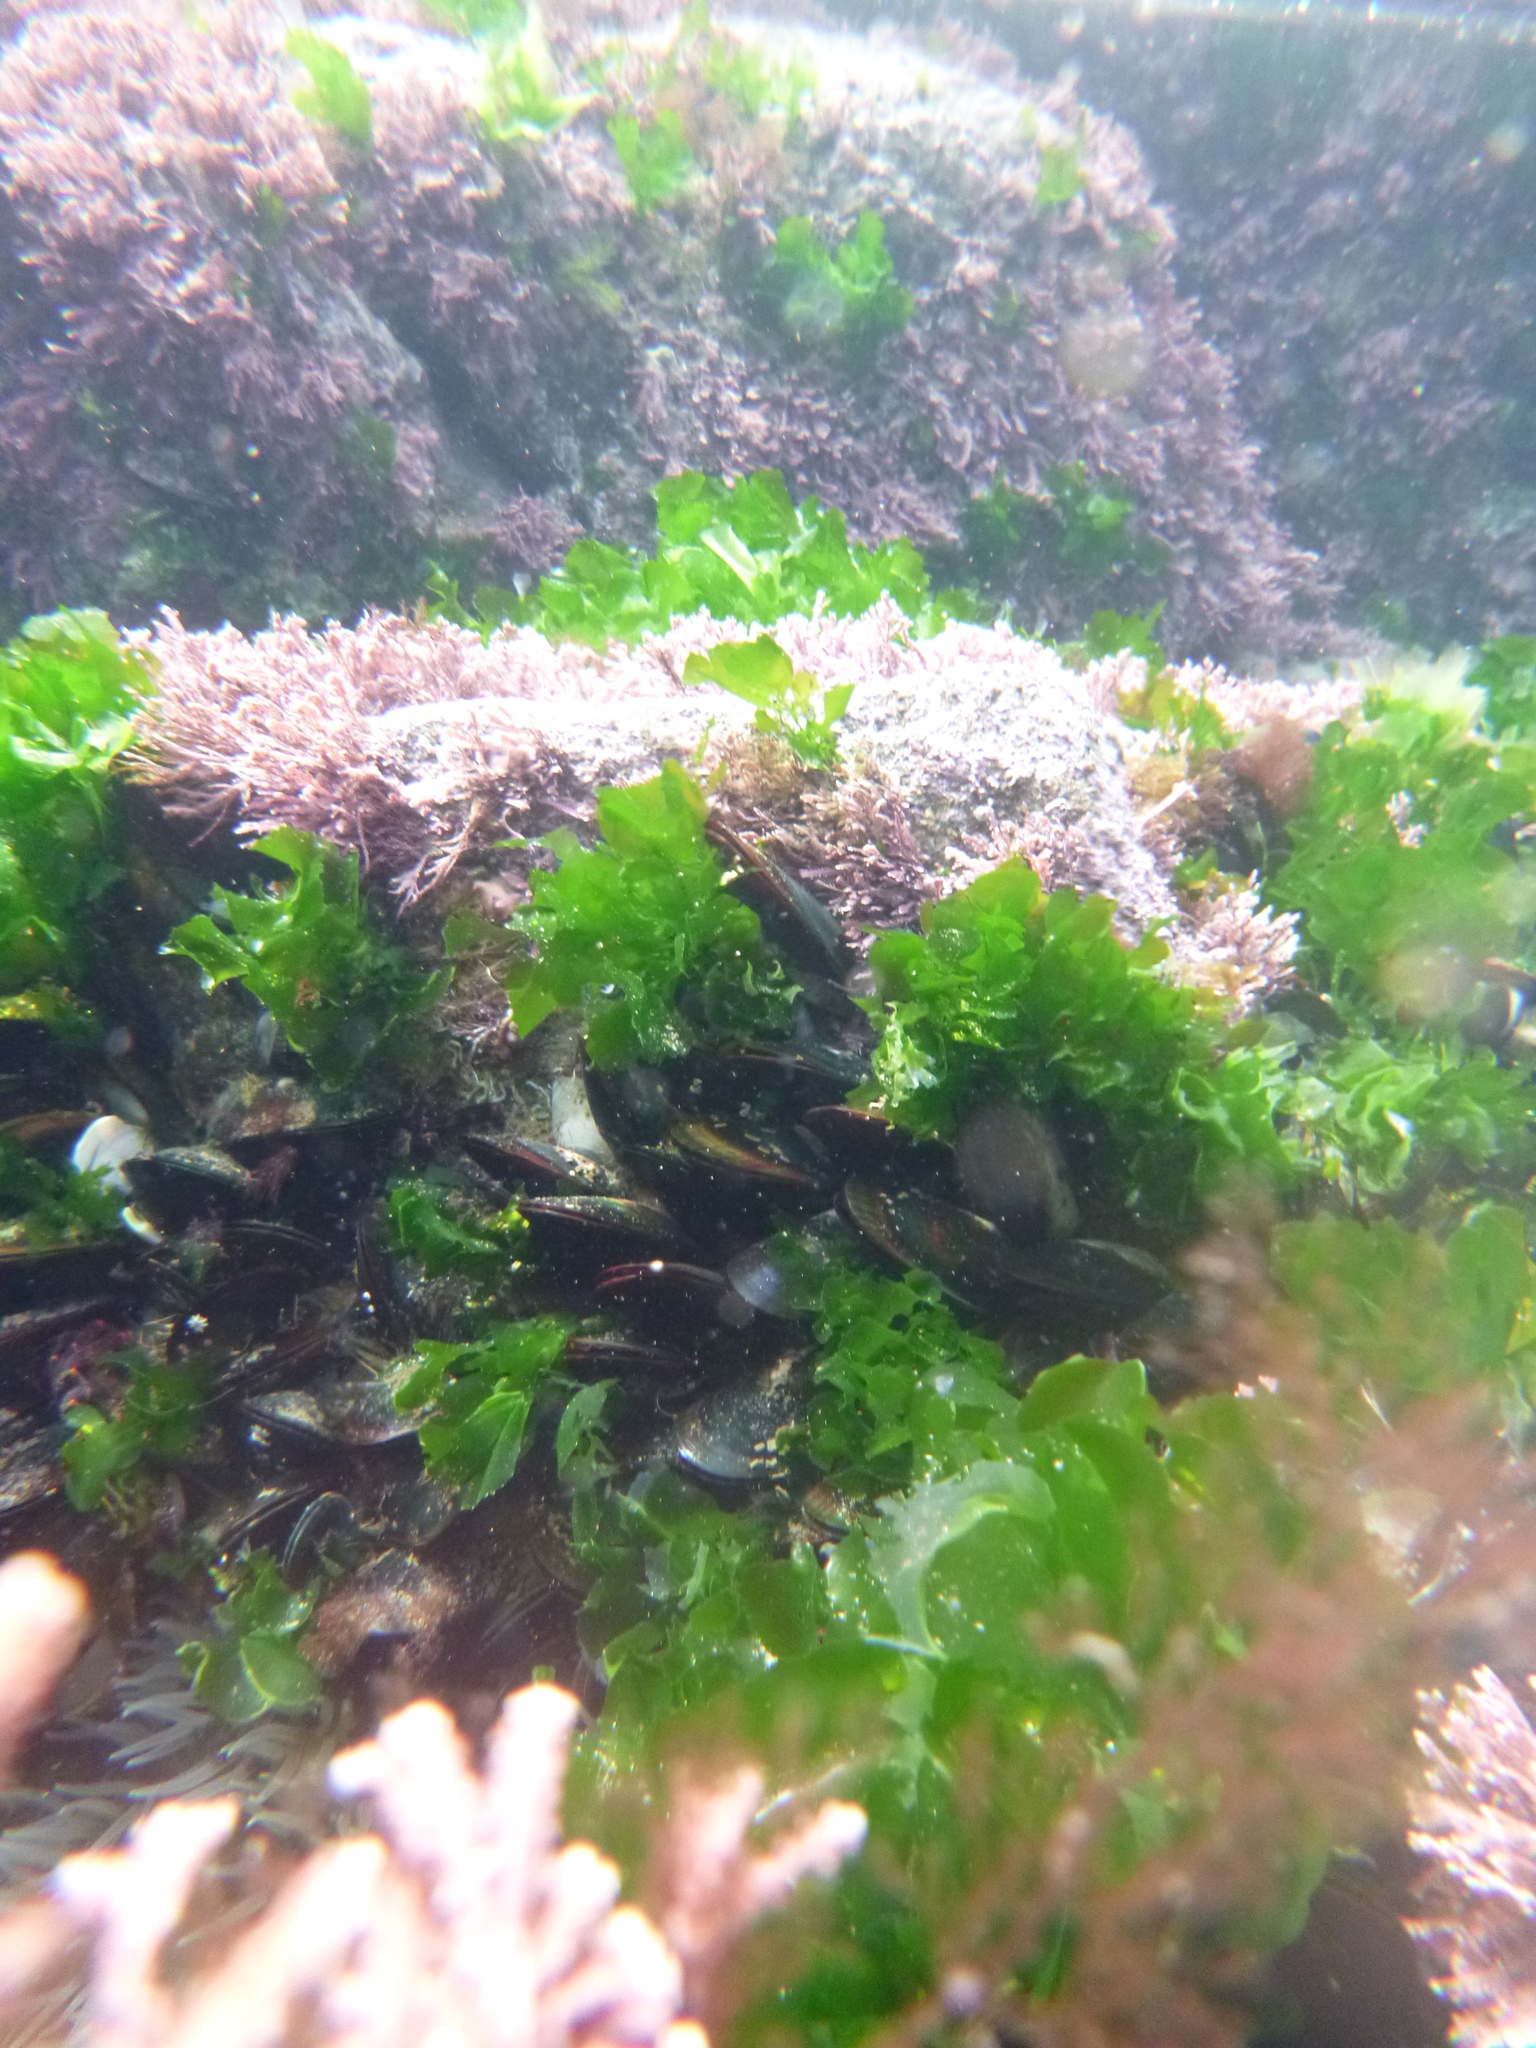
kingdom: Plantae
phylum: Chlorophyta
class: Ulvophyceae
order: Ulvales
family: Ulvaceae
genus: Ulva
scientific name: Ulva
